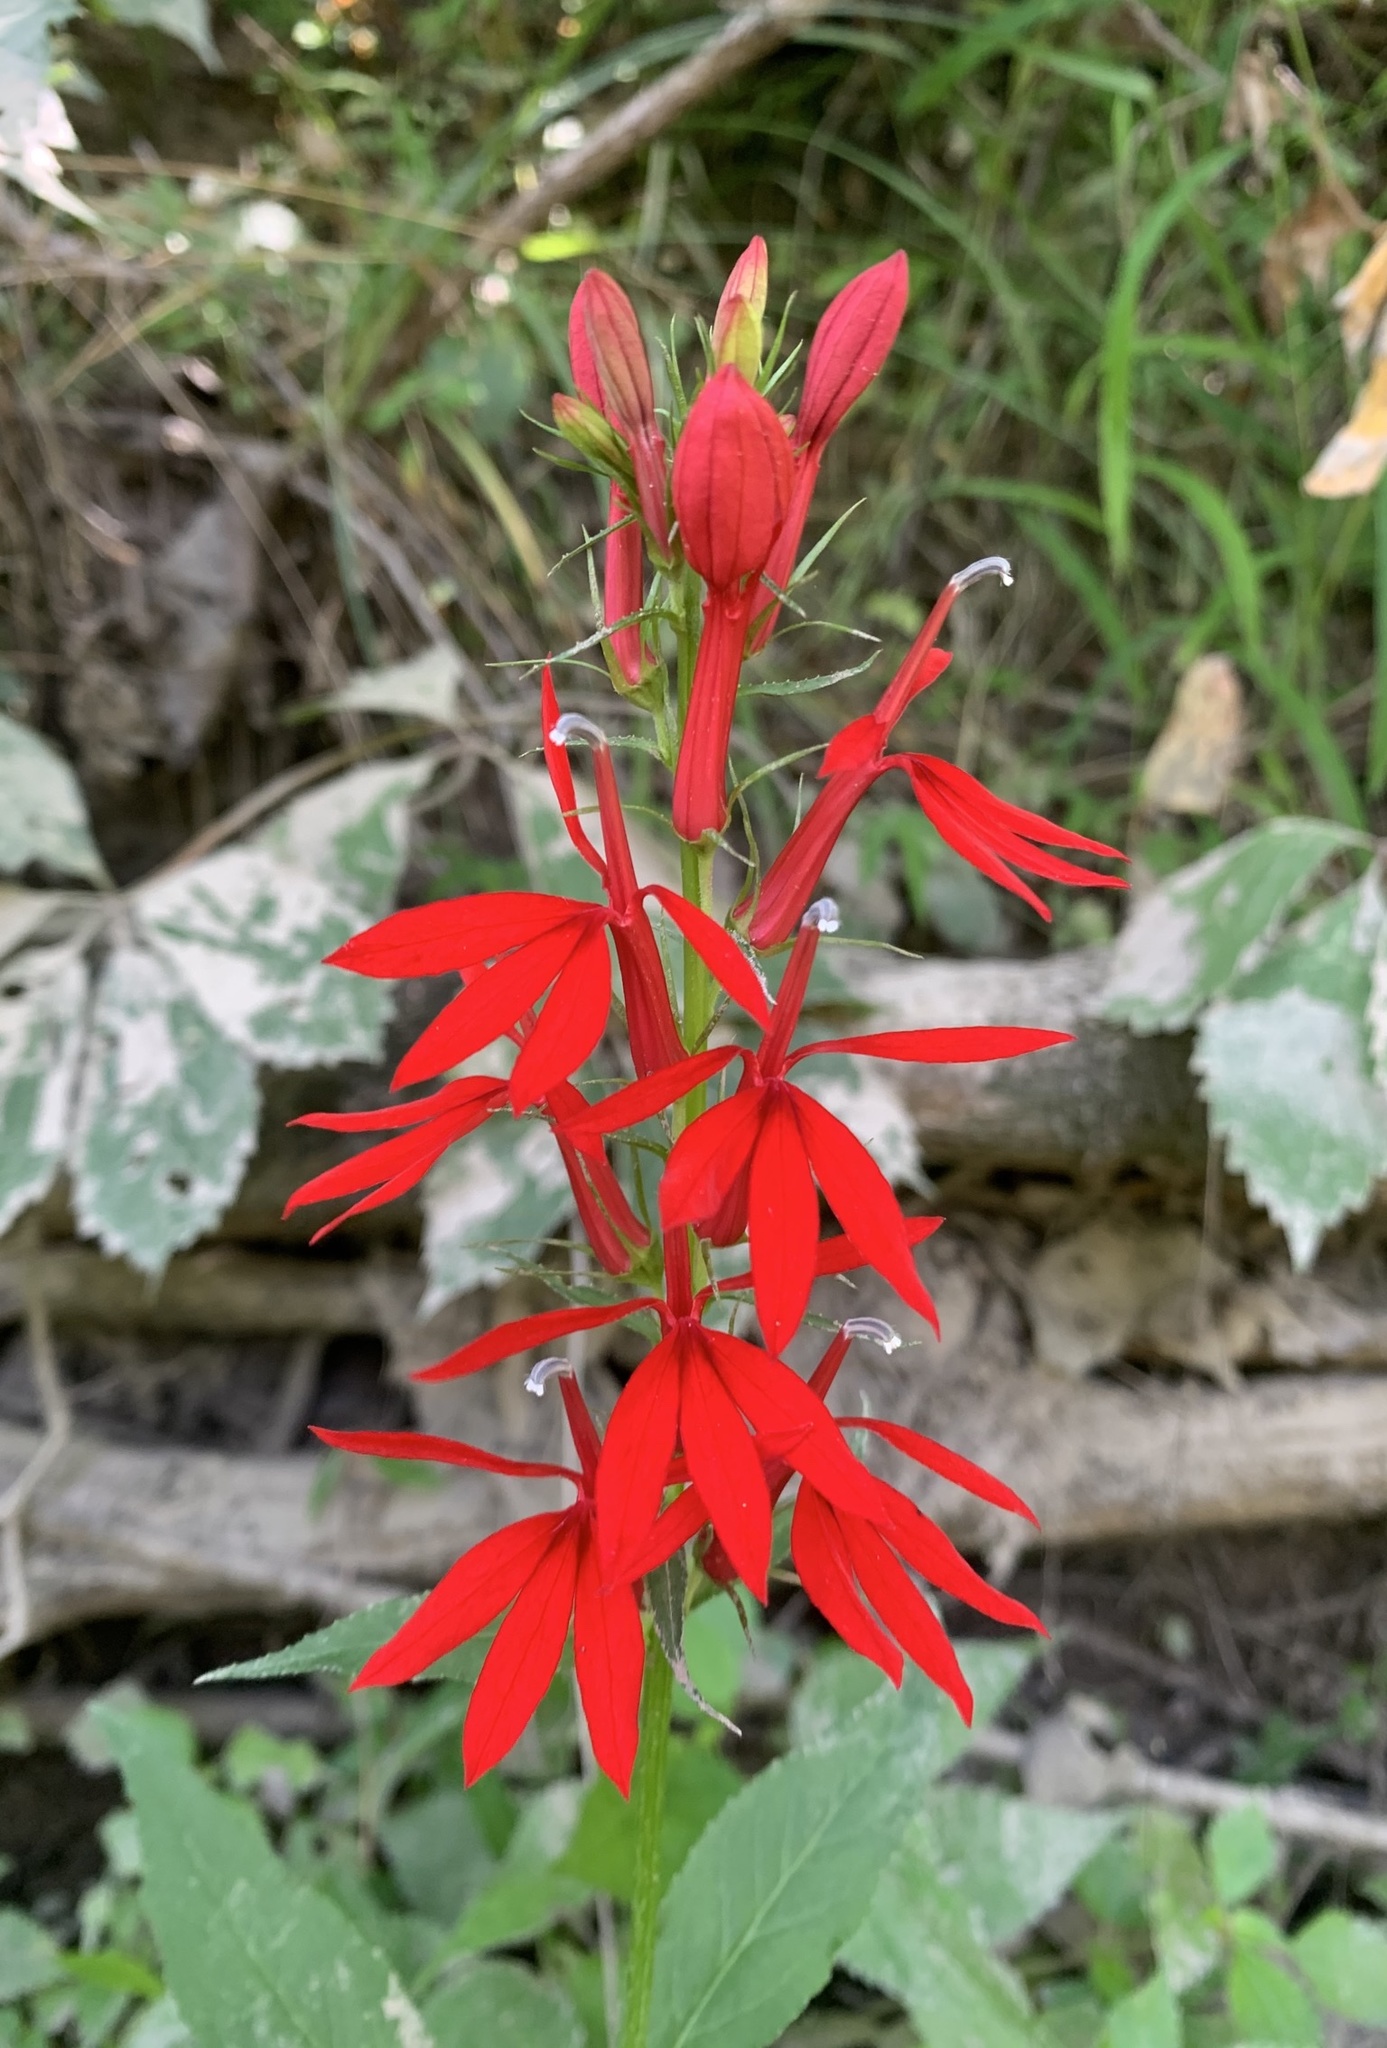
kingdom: Plantae
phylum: Tracheophyta
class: Magnoliopsida
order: Asterales
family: Campanulaceae
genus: Lobelia
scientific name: Lobelia cardinalis
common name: Cardinal flower
